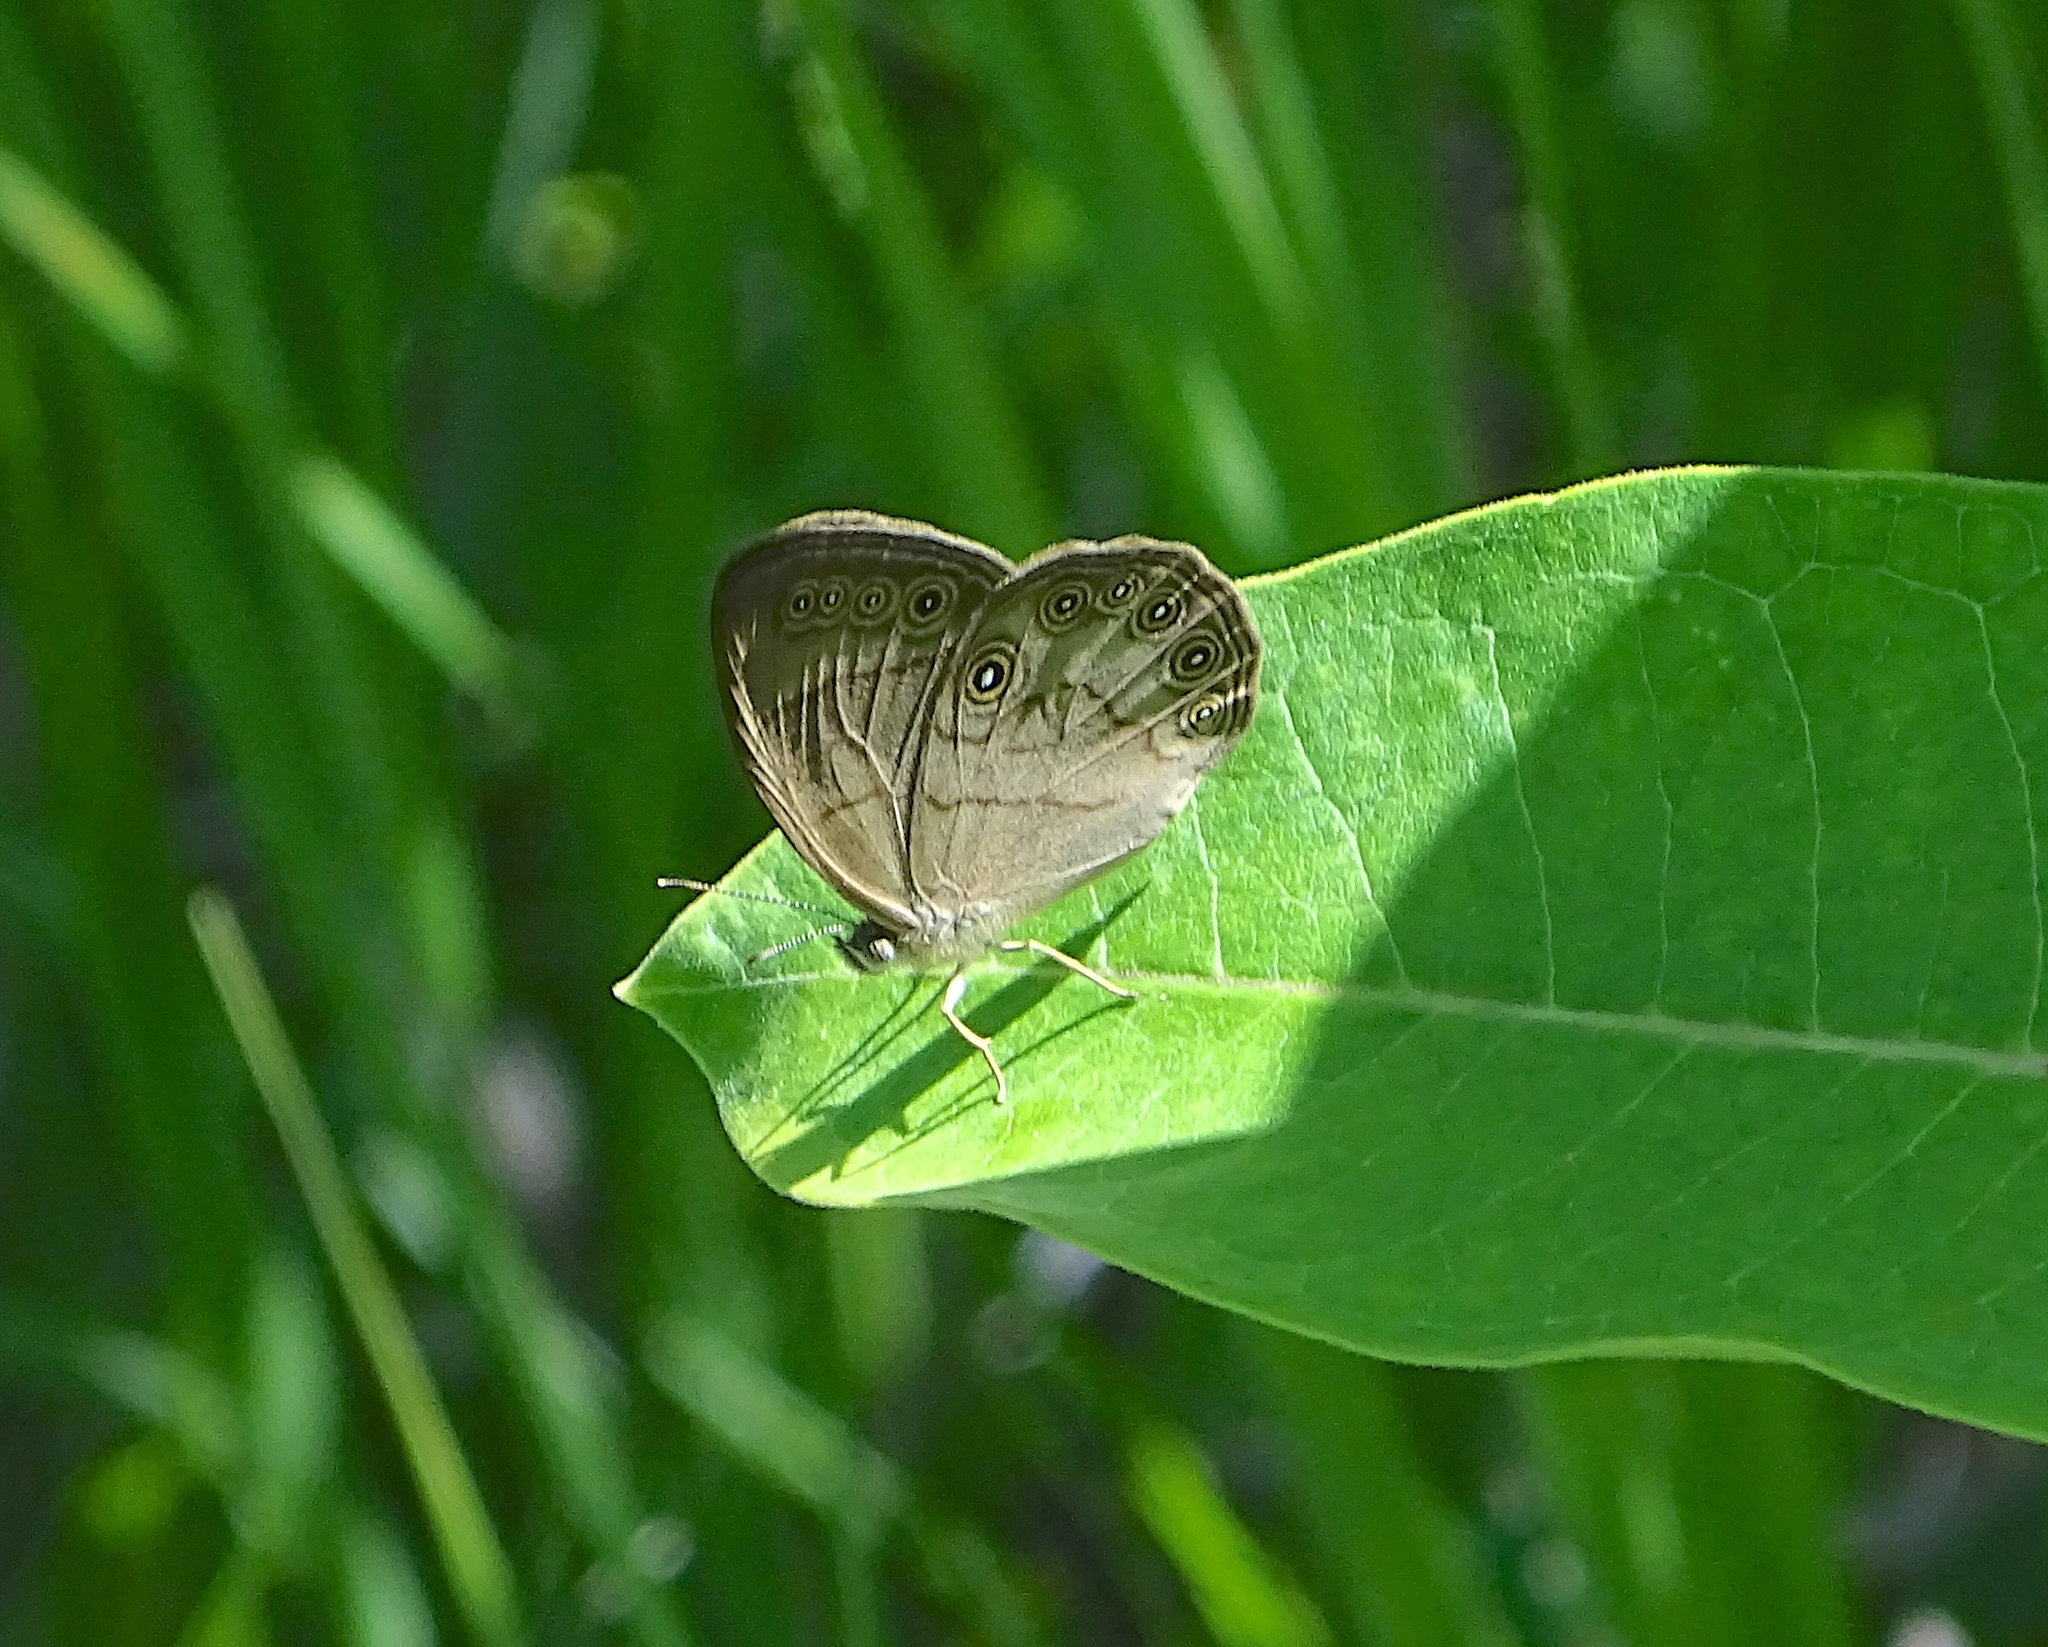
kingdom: Animalia
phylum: Arthropoda
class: Insecta
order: Lepidoptera
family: Nymphalidae
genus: Lethe
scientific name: Lethe eurydice
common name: Eyed brown
